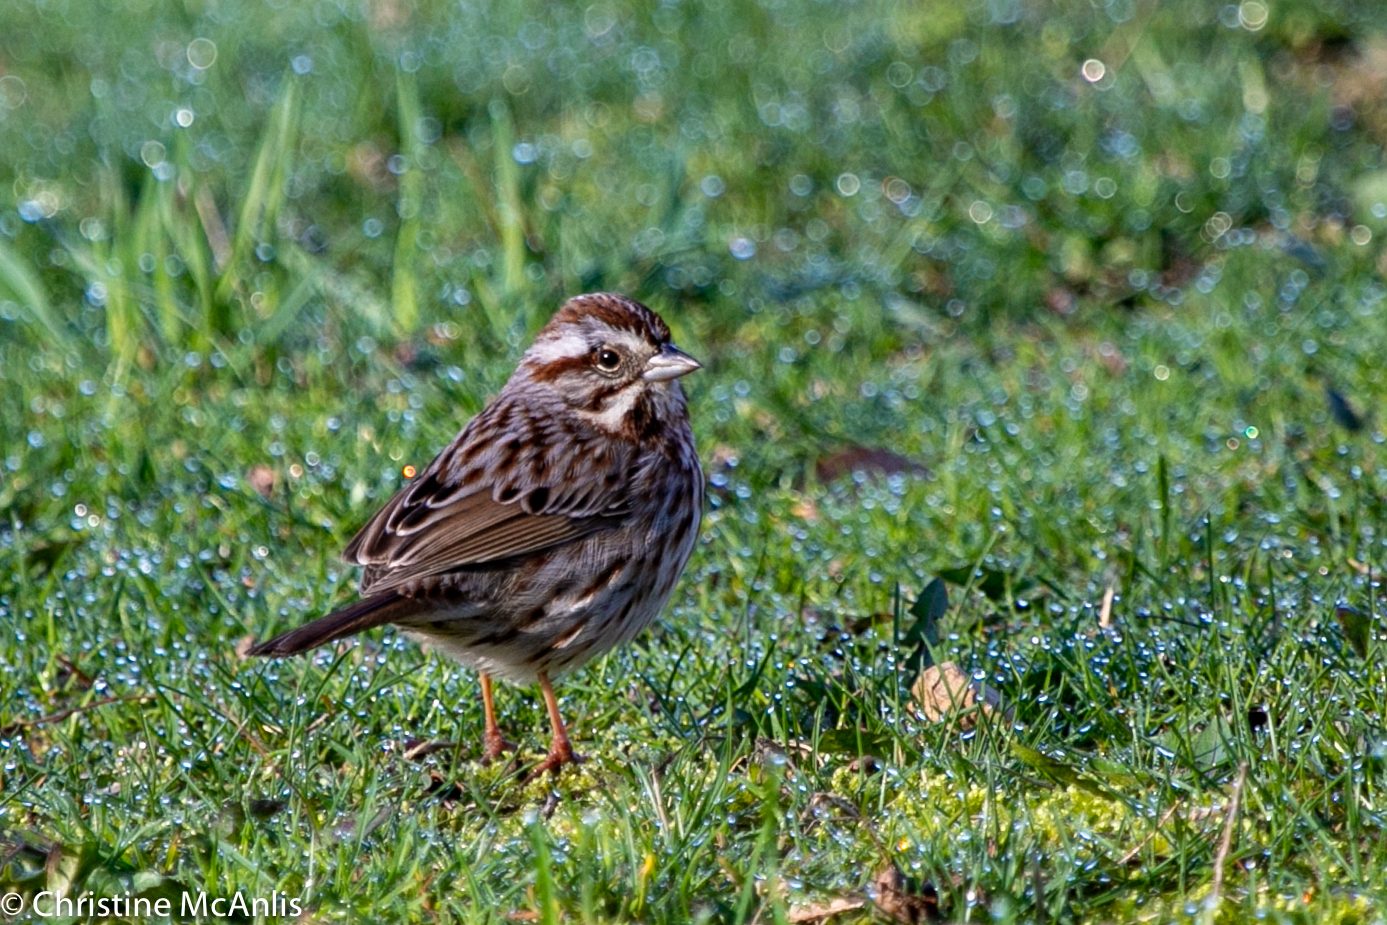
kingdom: Animalia
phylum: Chordata
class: Aves
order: Passeriformes
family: Passerellidae
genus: Melospiza
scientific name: Melospiza melodia
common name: Song sparrow
